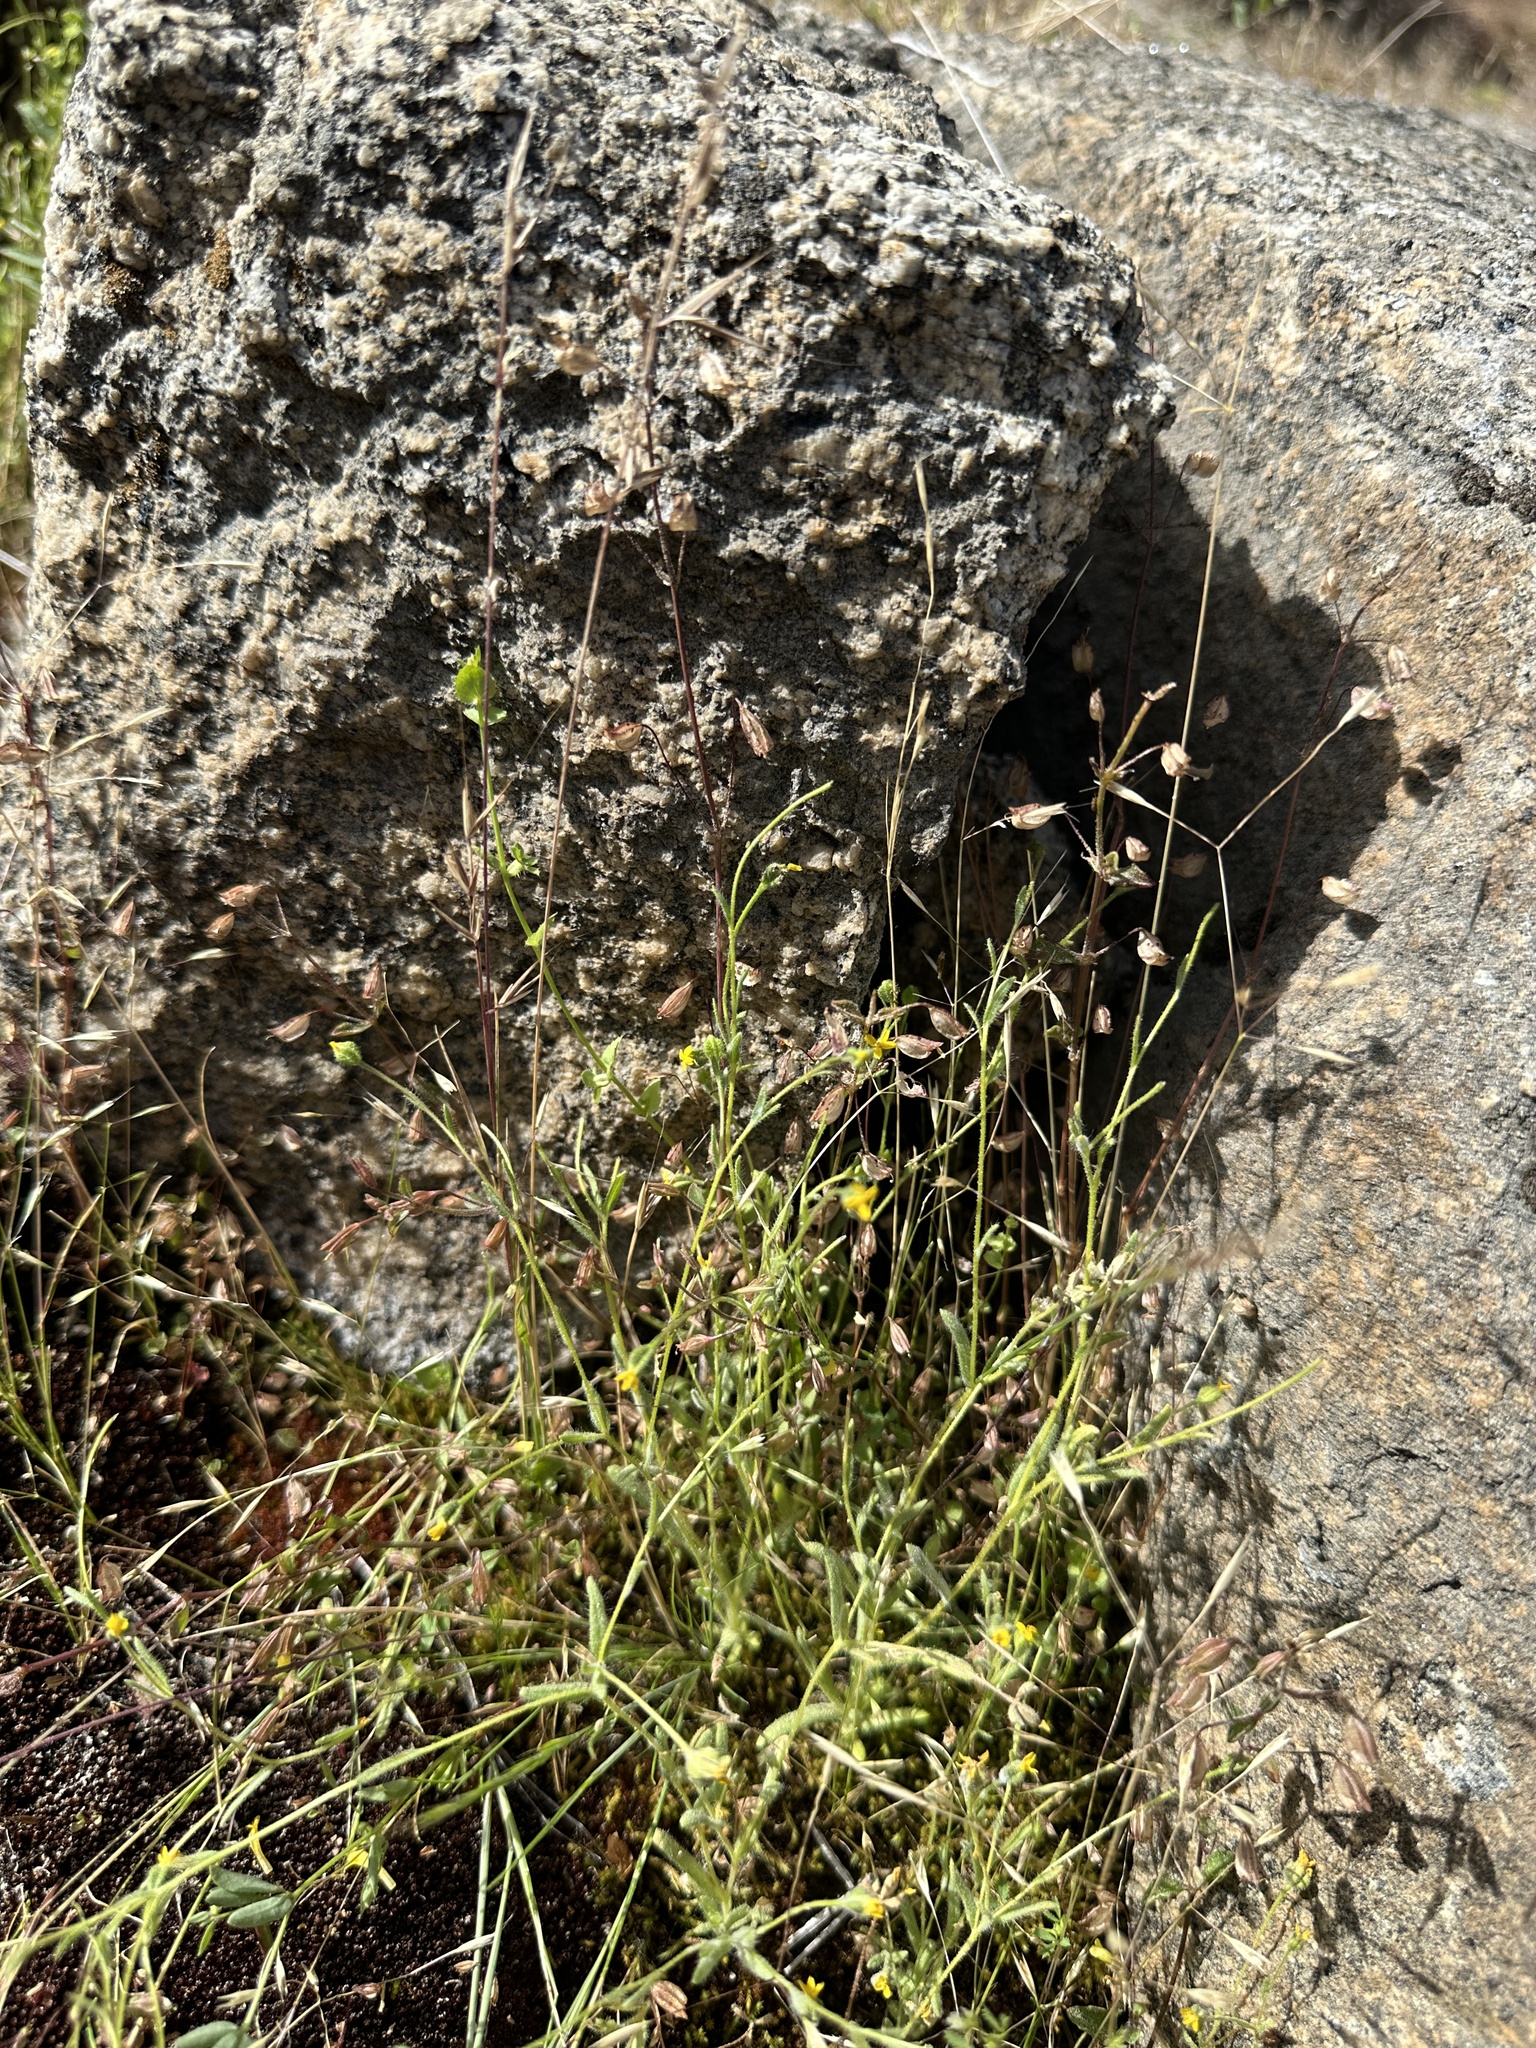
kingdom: Plantae
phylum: Tracheophyta
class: Magnoliopsida
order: Asterales
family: Asteraceae
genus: Jensia
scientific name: Jensia yosemitana
